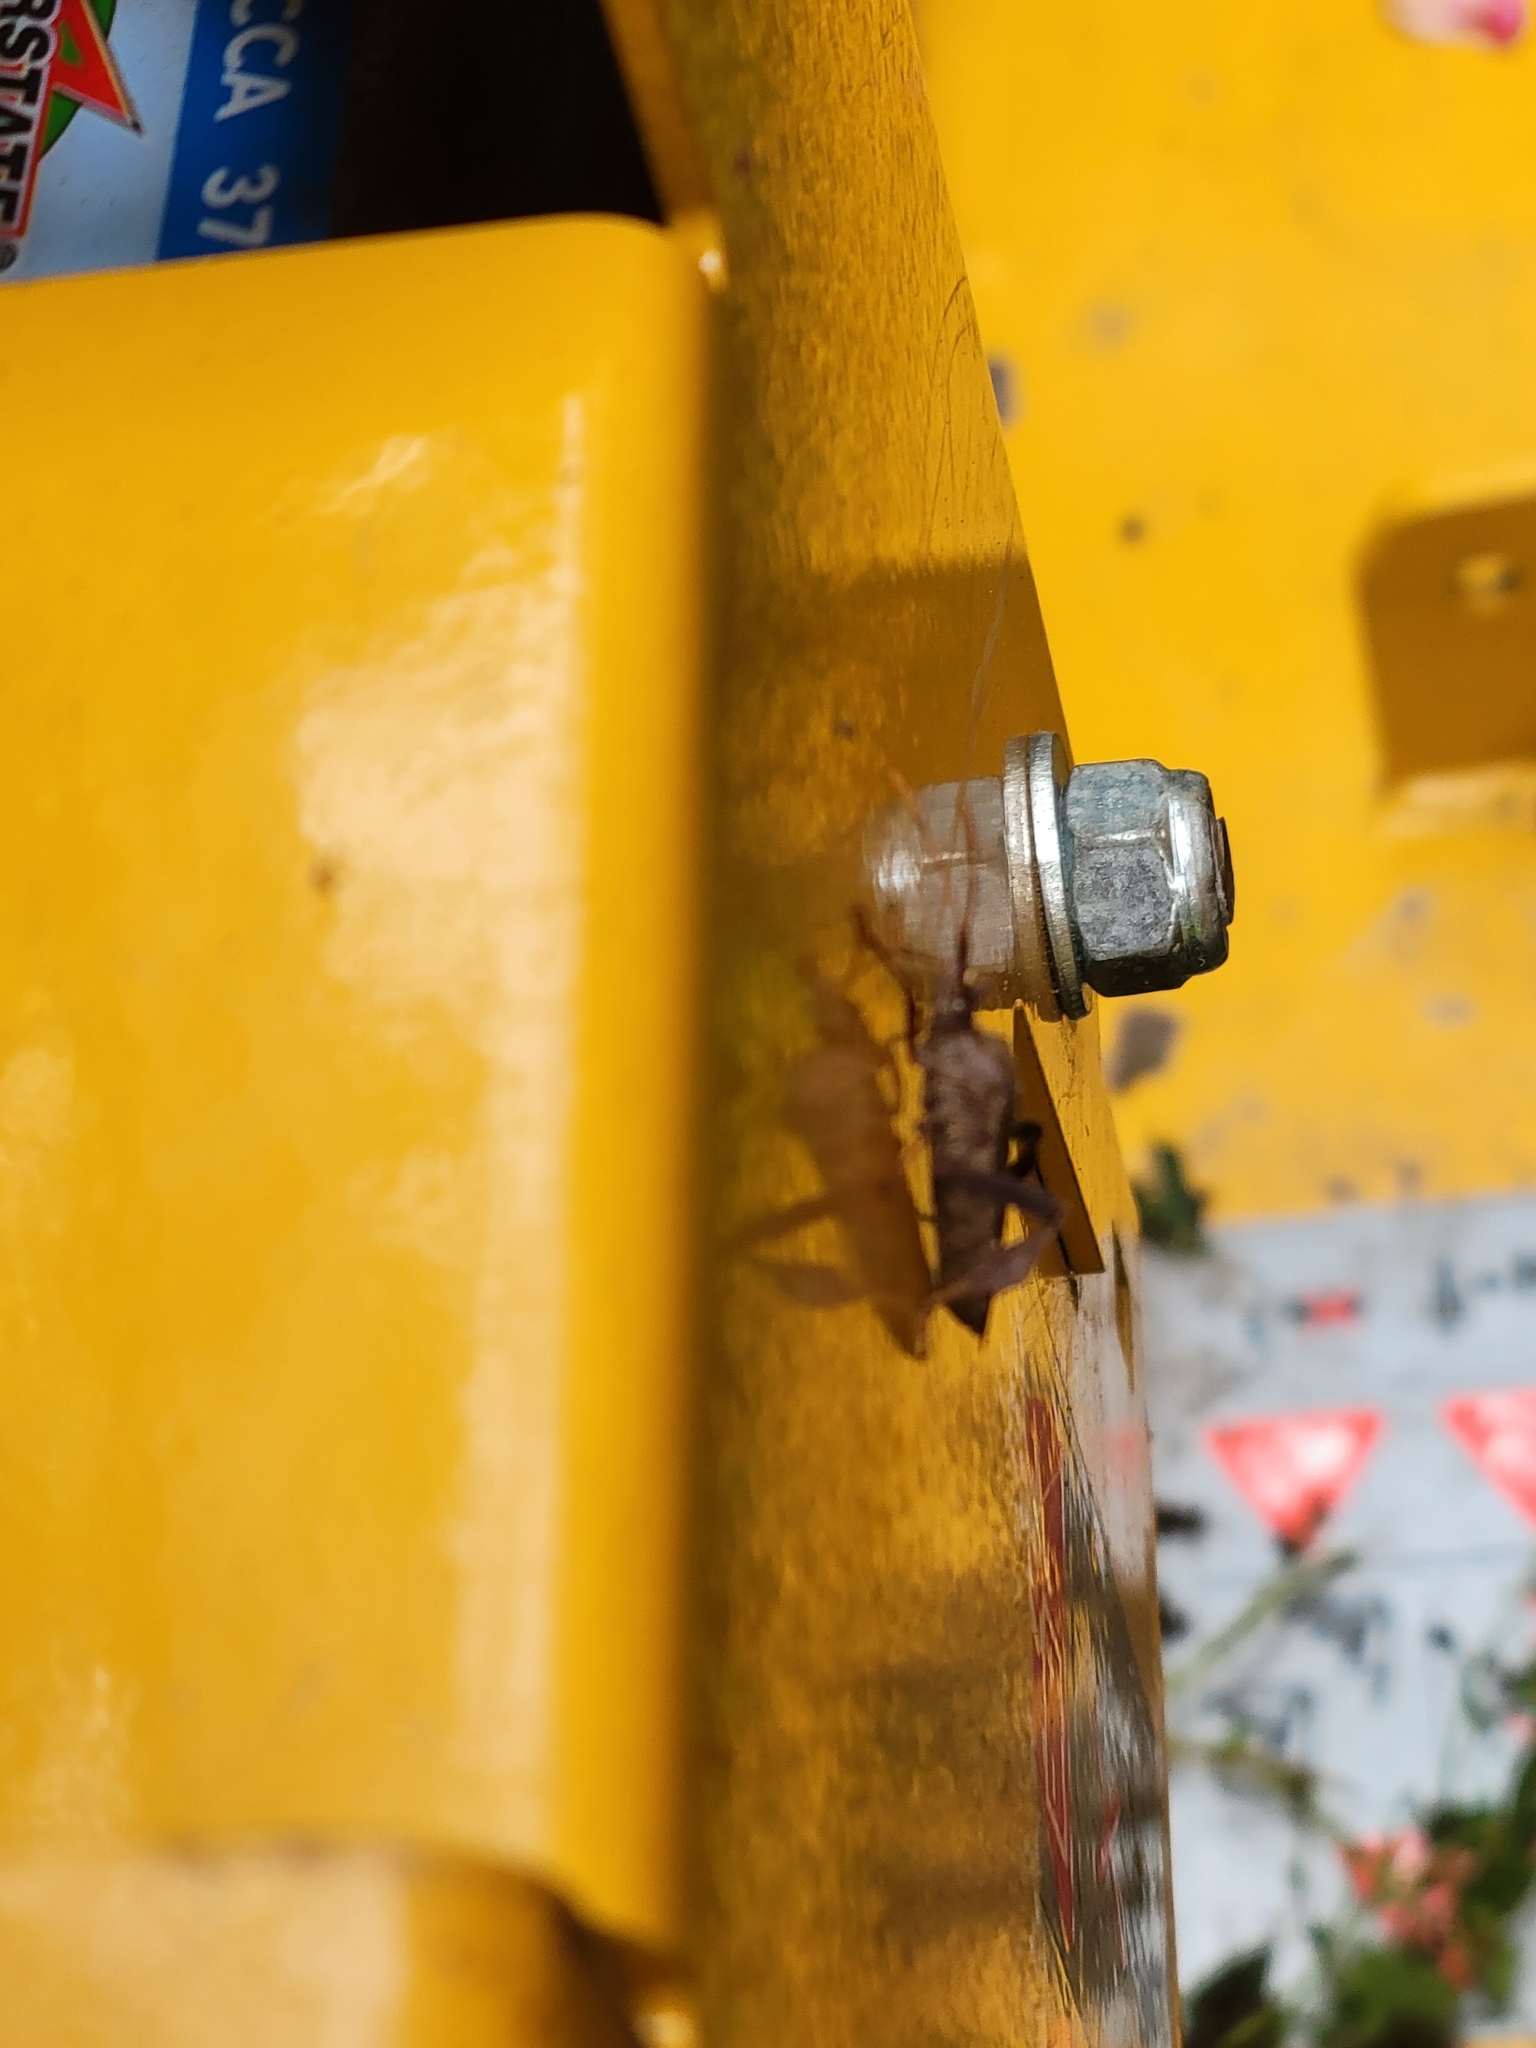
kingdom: Animalia
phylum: Arthropoda
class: Insecta
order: Hemiptera
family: Coreidae
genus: Leptoglossus
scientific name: Leptoglossus oppositus
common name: Northern leaf-footed bug
